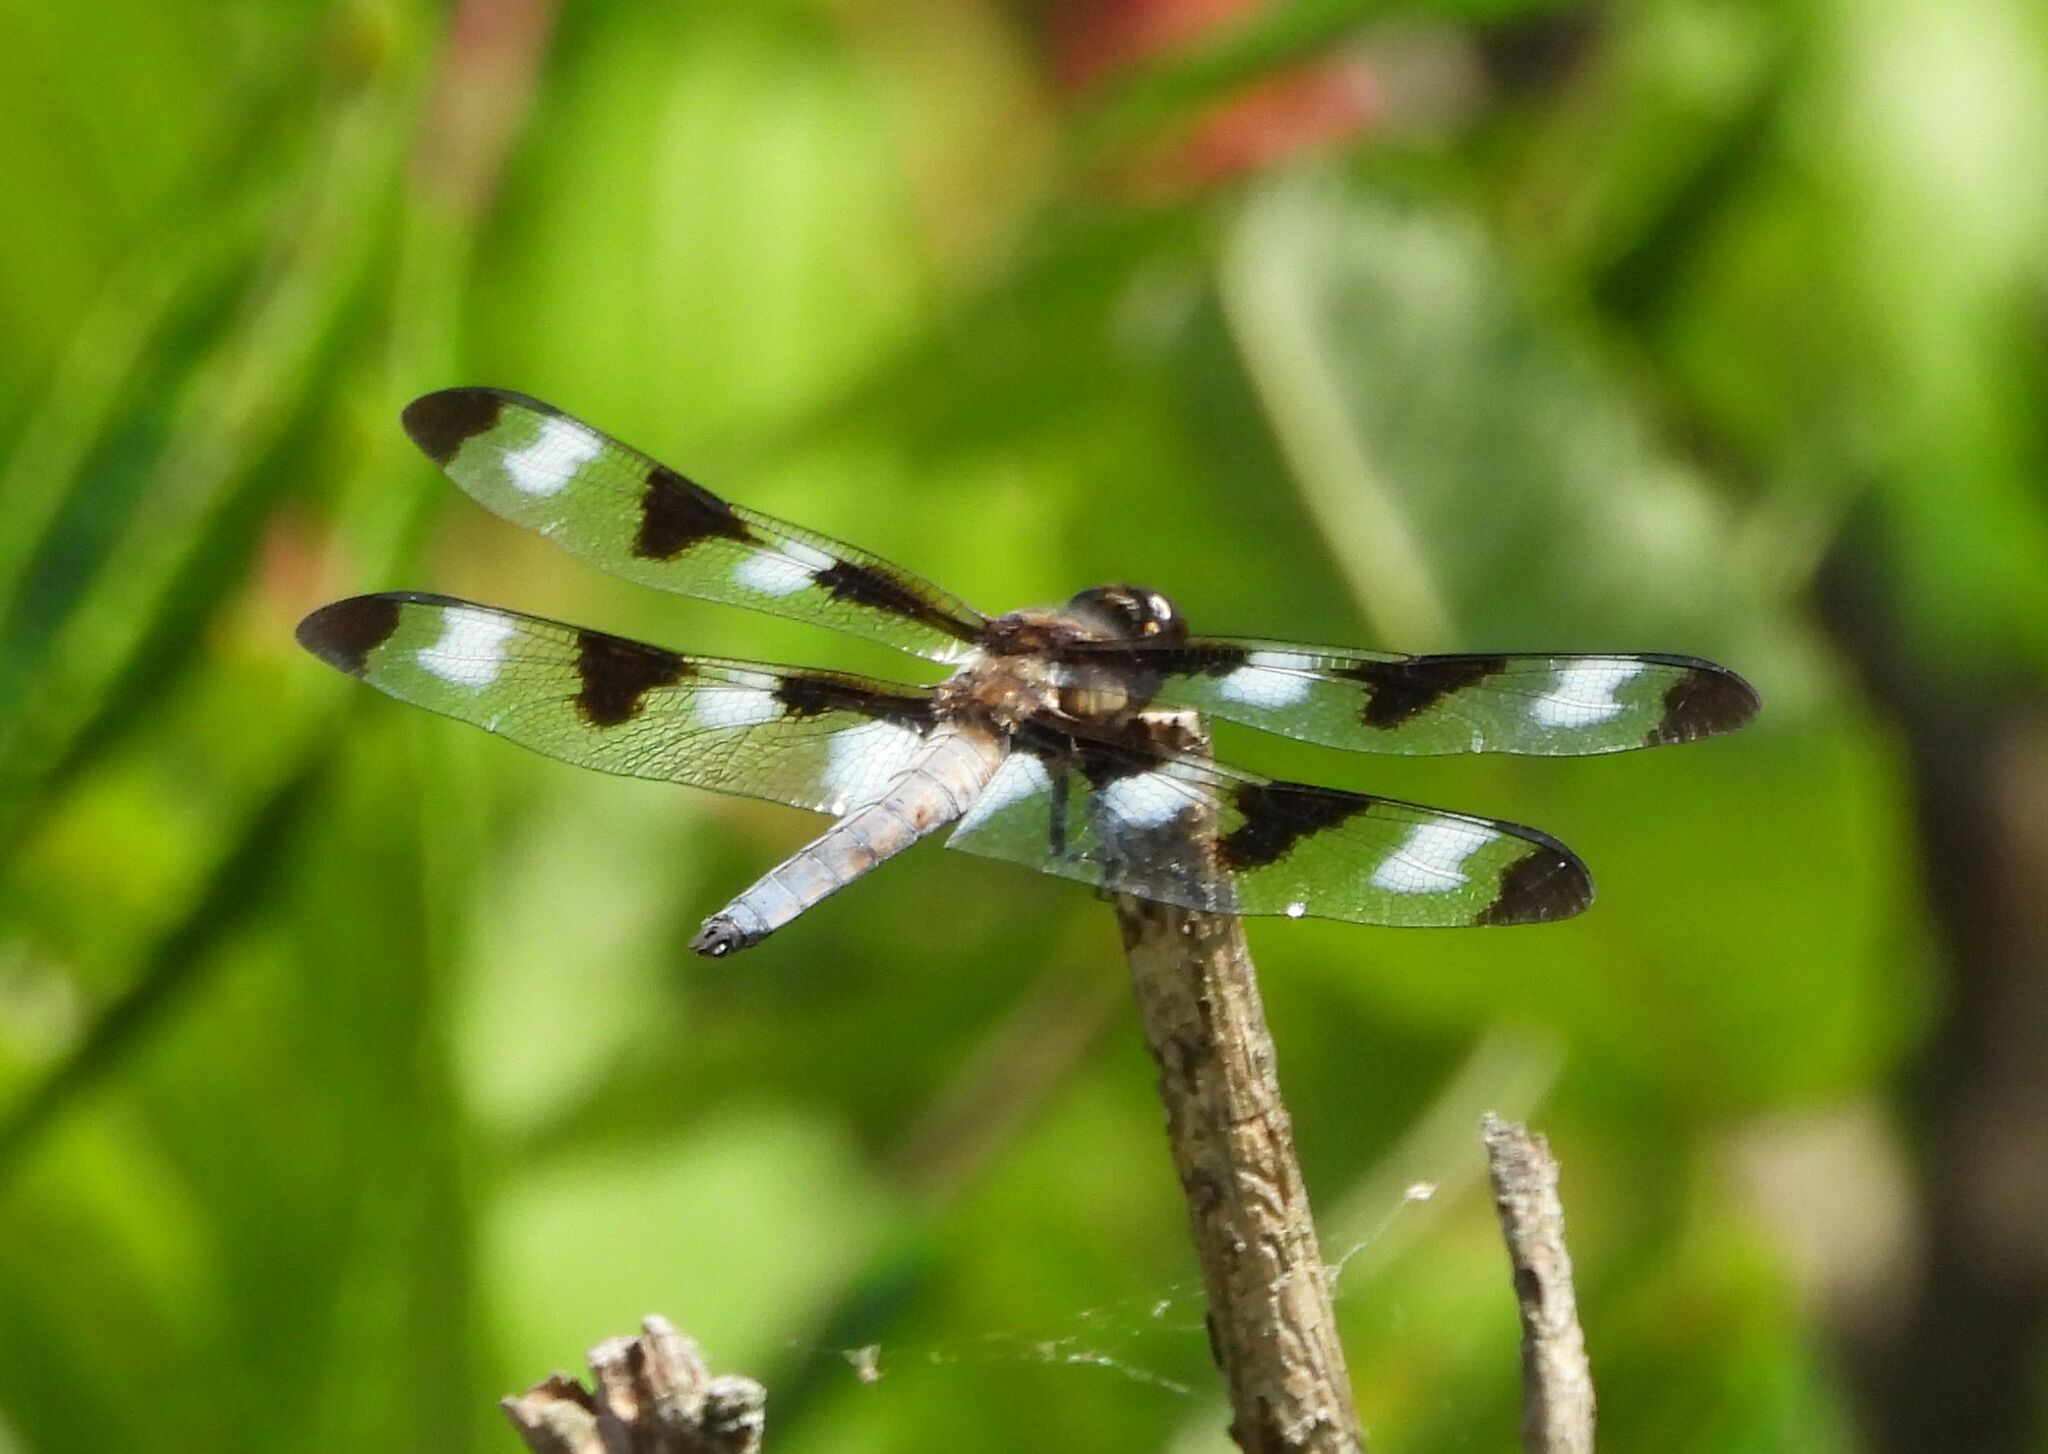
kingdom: Animalia
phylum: Arthropoda
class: Insecta
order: Odonata
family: Libellulidae
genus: Libellula
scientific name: Libellula pulchella
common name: Twelve-spotted skimmer
